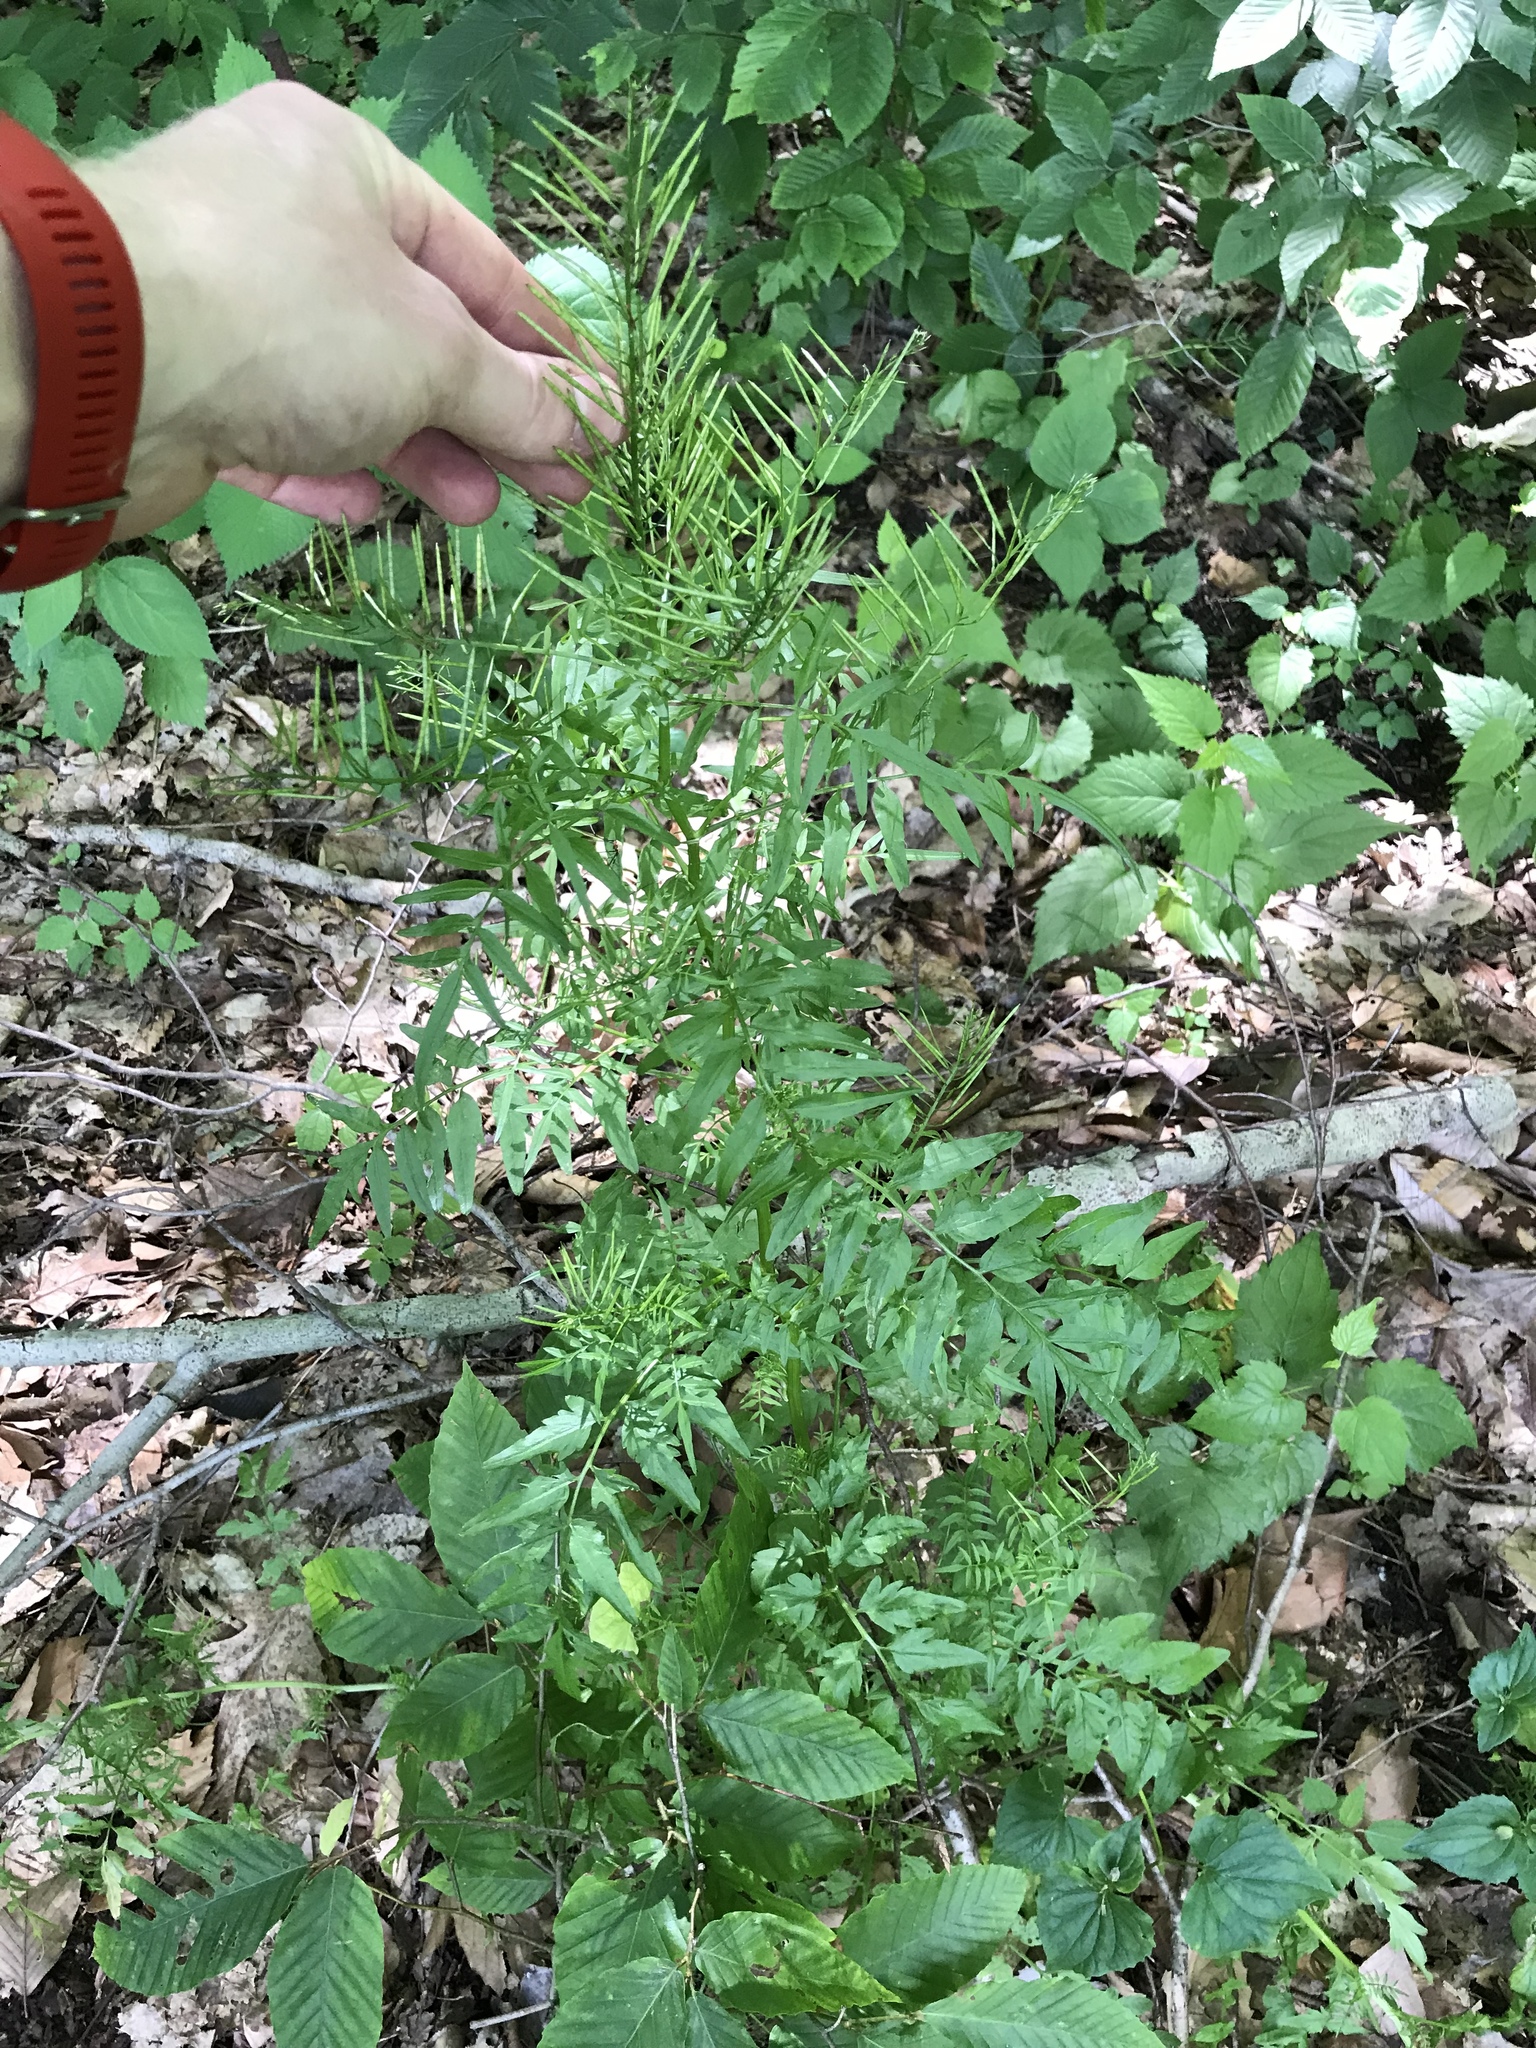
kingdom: Plantae
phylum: Tracheophyta
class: Magnoliopsida
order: Brassicales
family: Brassicaceae
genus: Cardamine
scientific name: Cardamine impatiens
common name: Narrow-leaved bitter-cress
